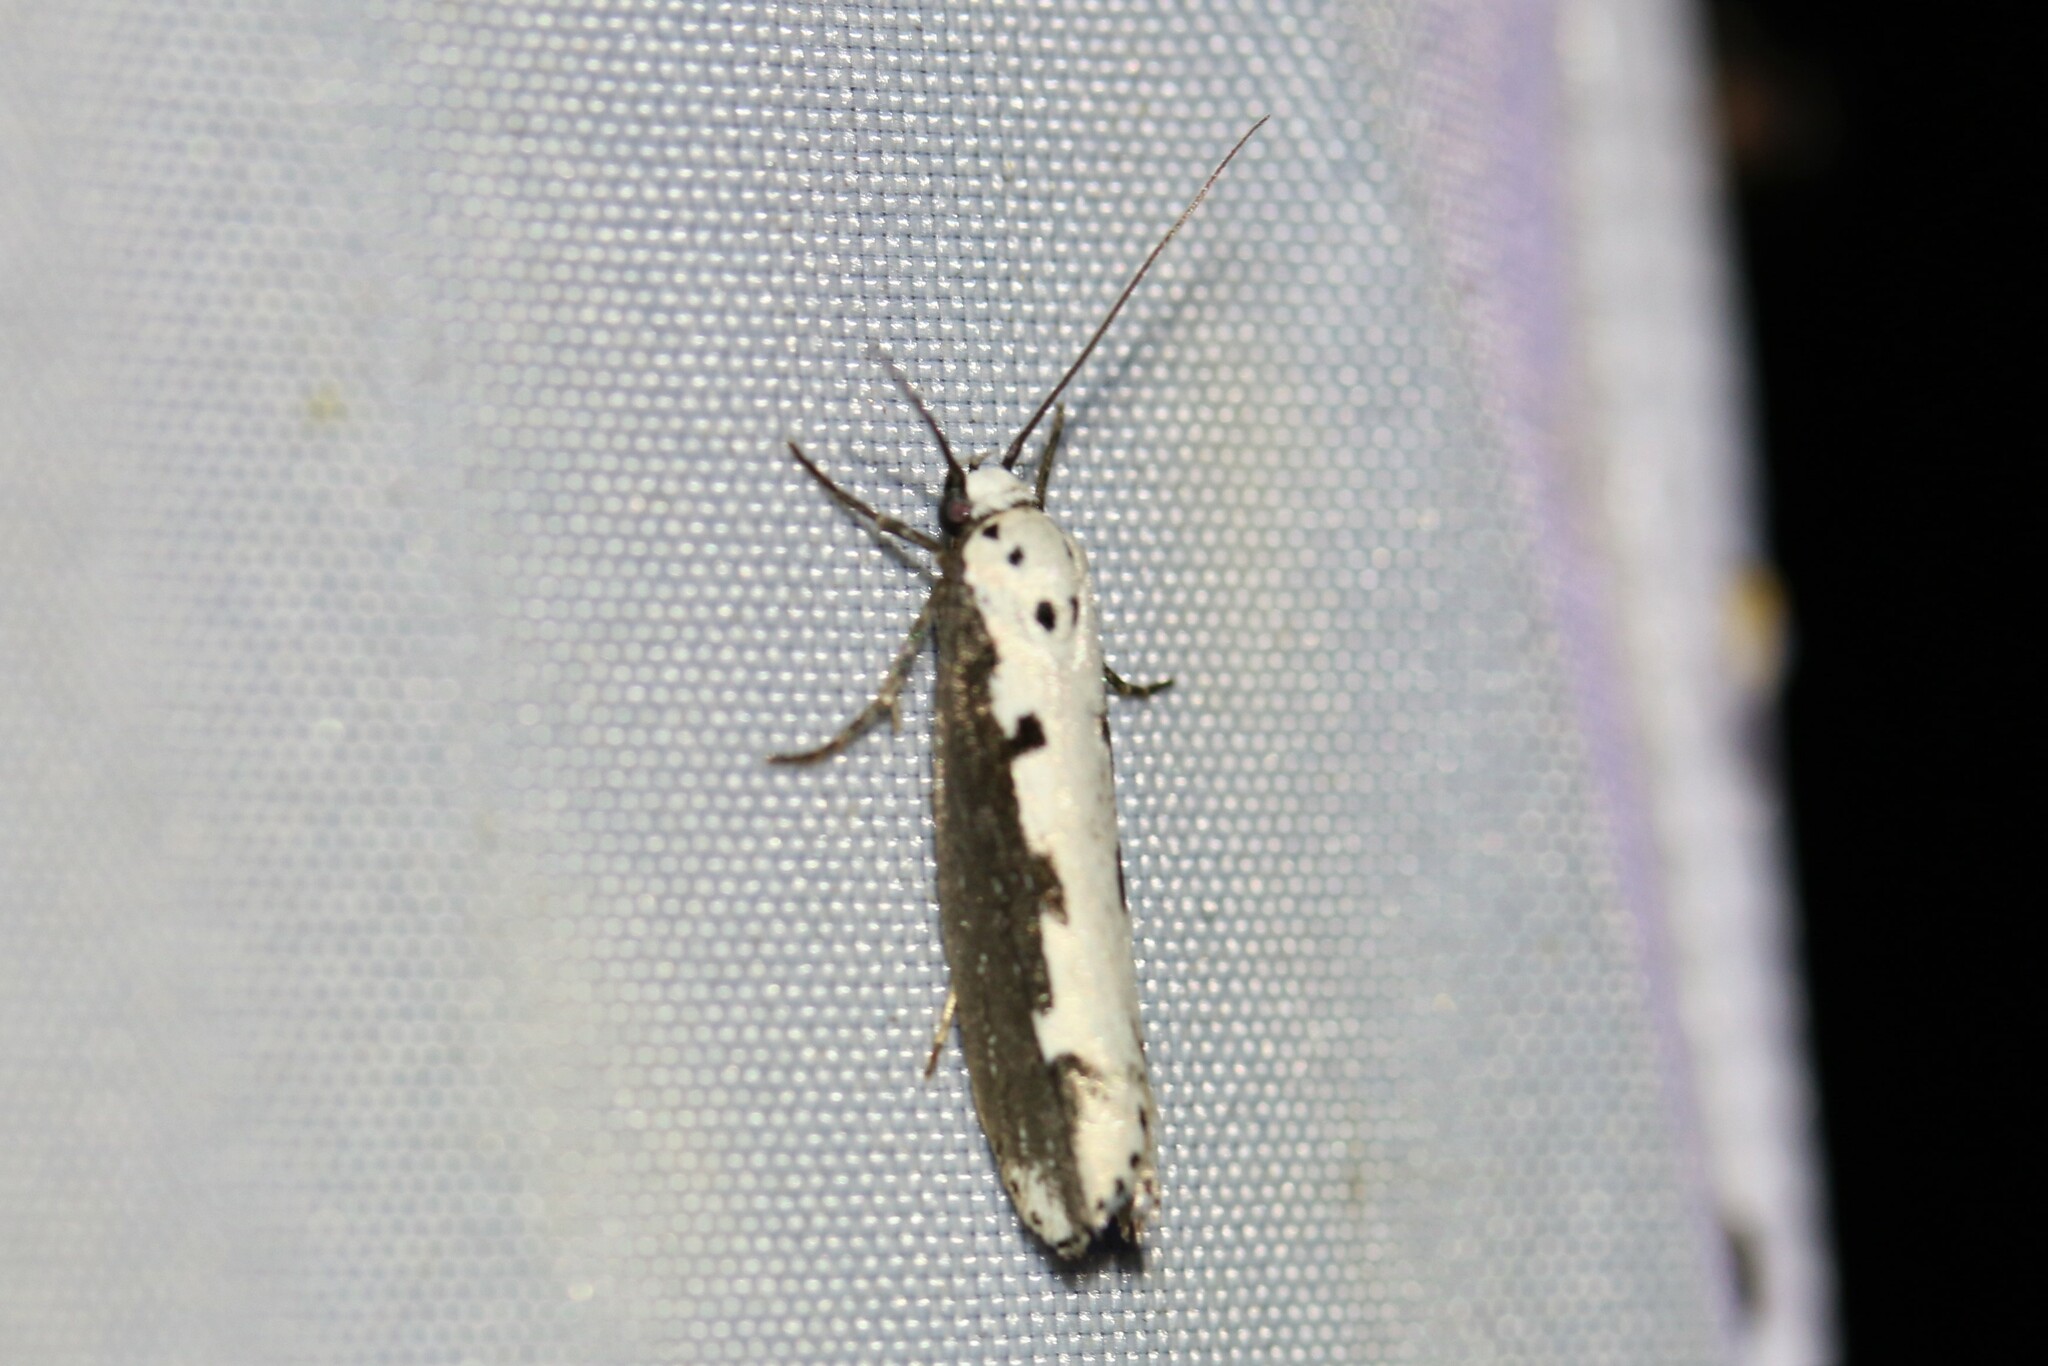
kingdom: Animalia
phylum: Arthropoda
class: Insecta
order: Lepidoptera
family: Ethmiidae
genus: Ethmia
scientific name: Ethmia bipunctella
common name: Bordered ermel
